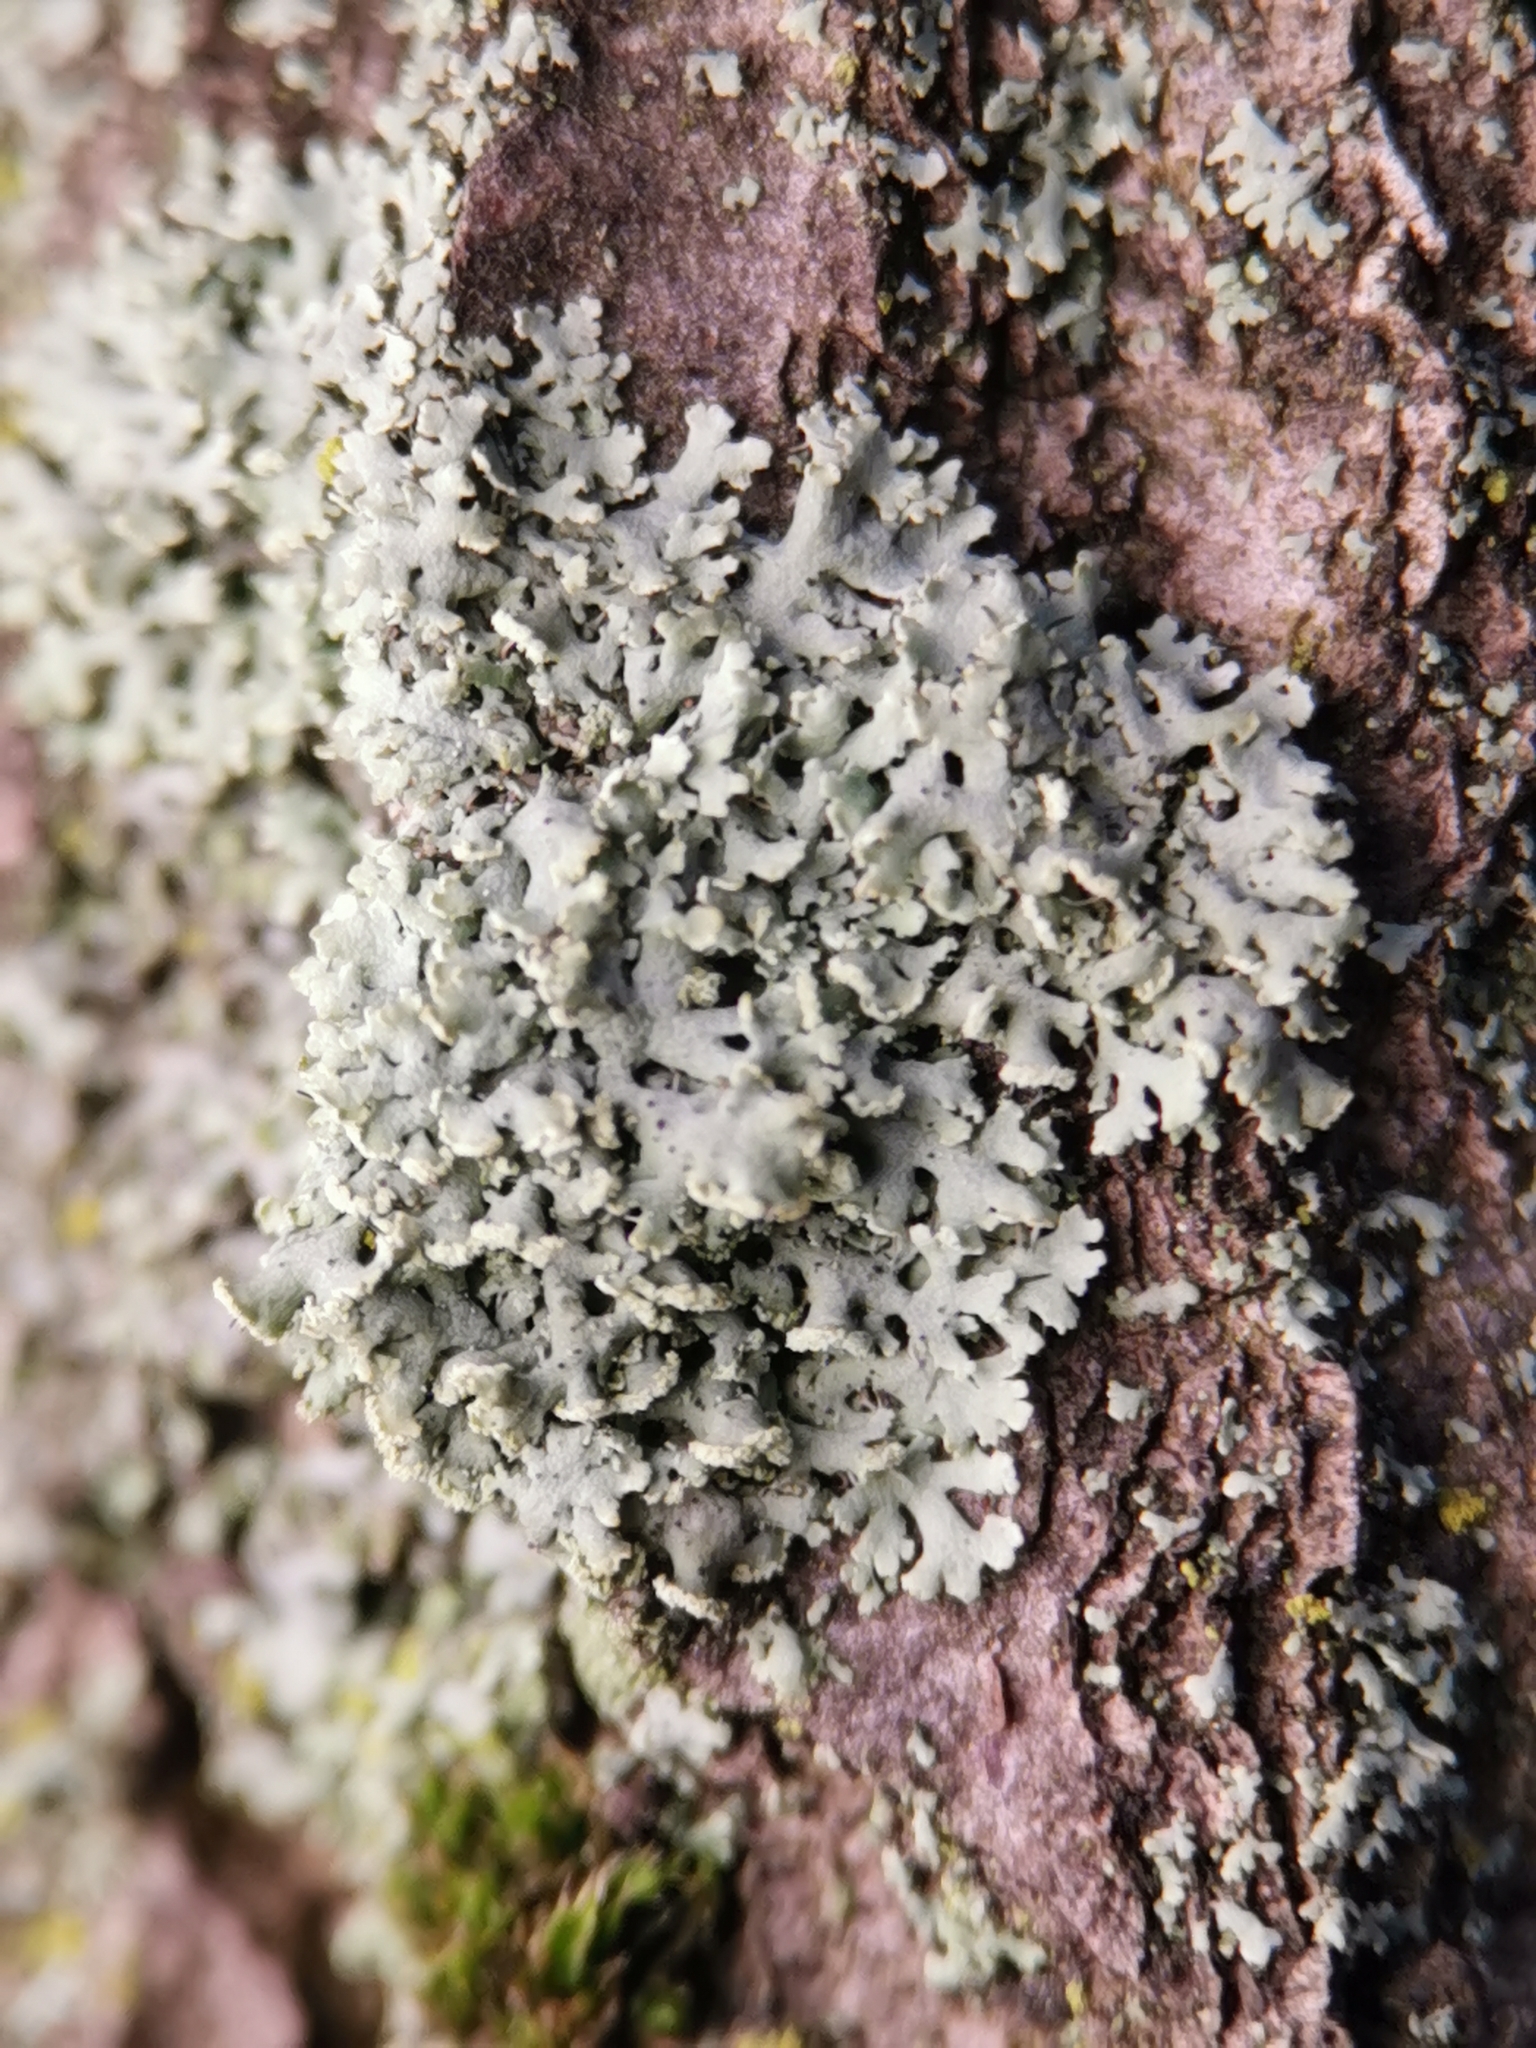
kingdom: Fungi
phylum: Ascomycota
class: Lecanoromycetes
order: Caliciales
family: Physciaceae
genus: Physcia
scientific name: Physcia tenella
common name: Fringed rosette lichen
